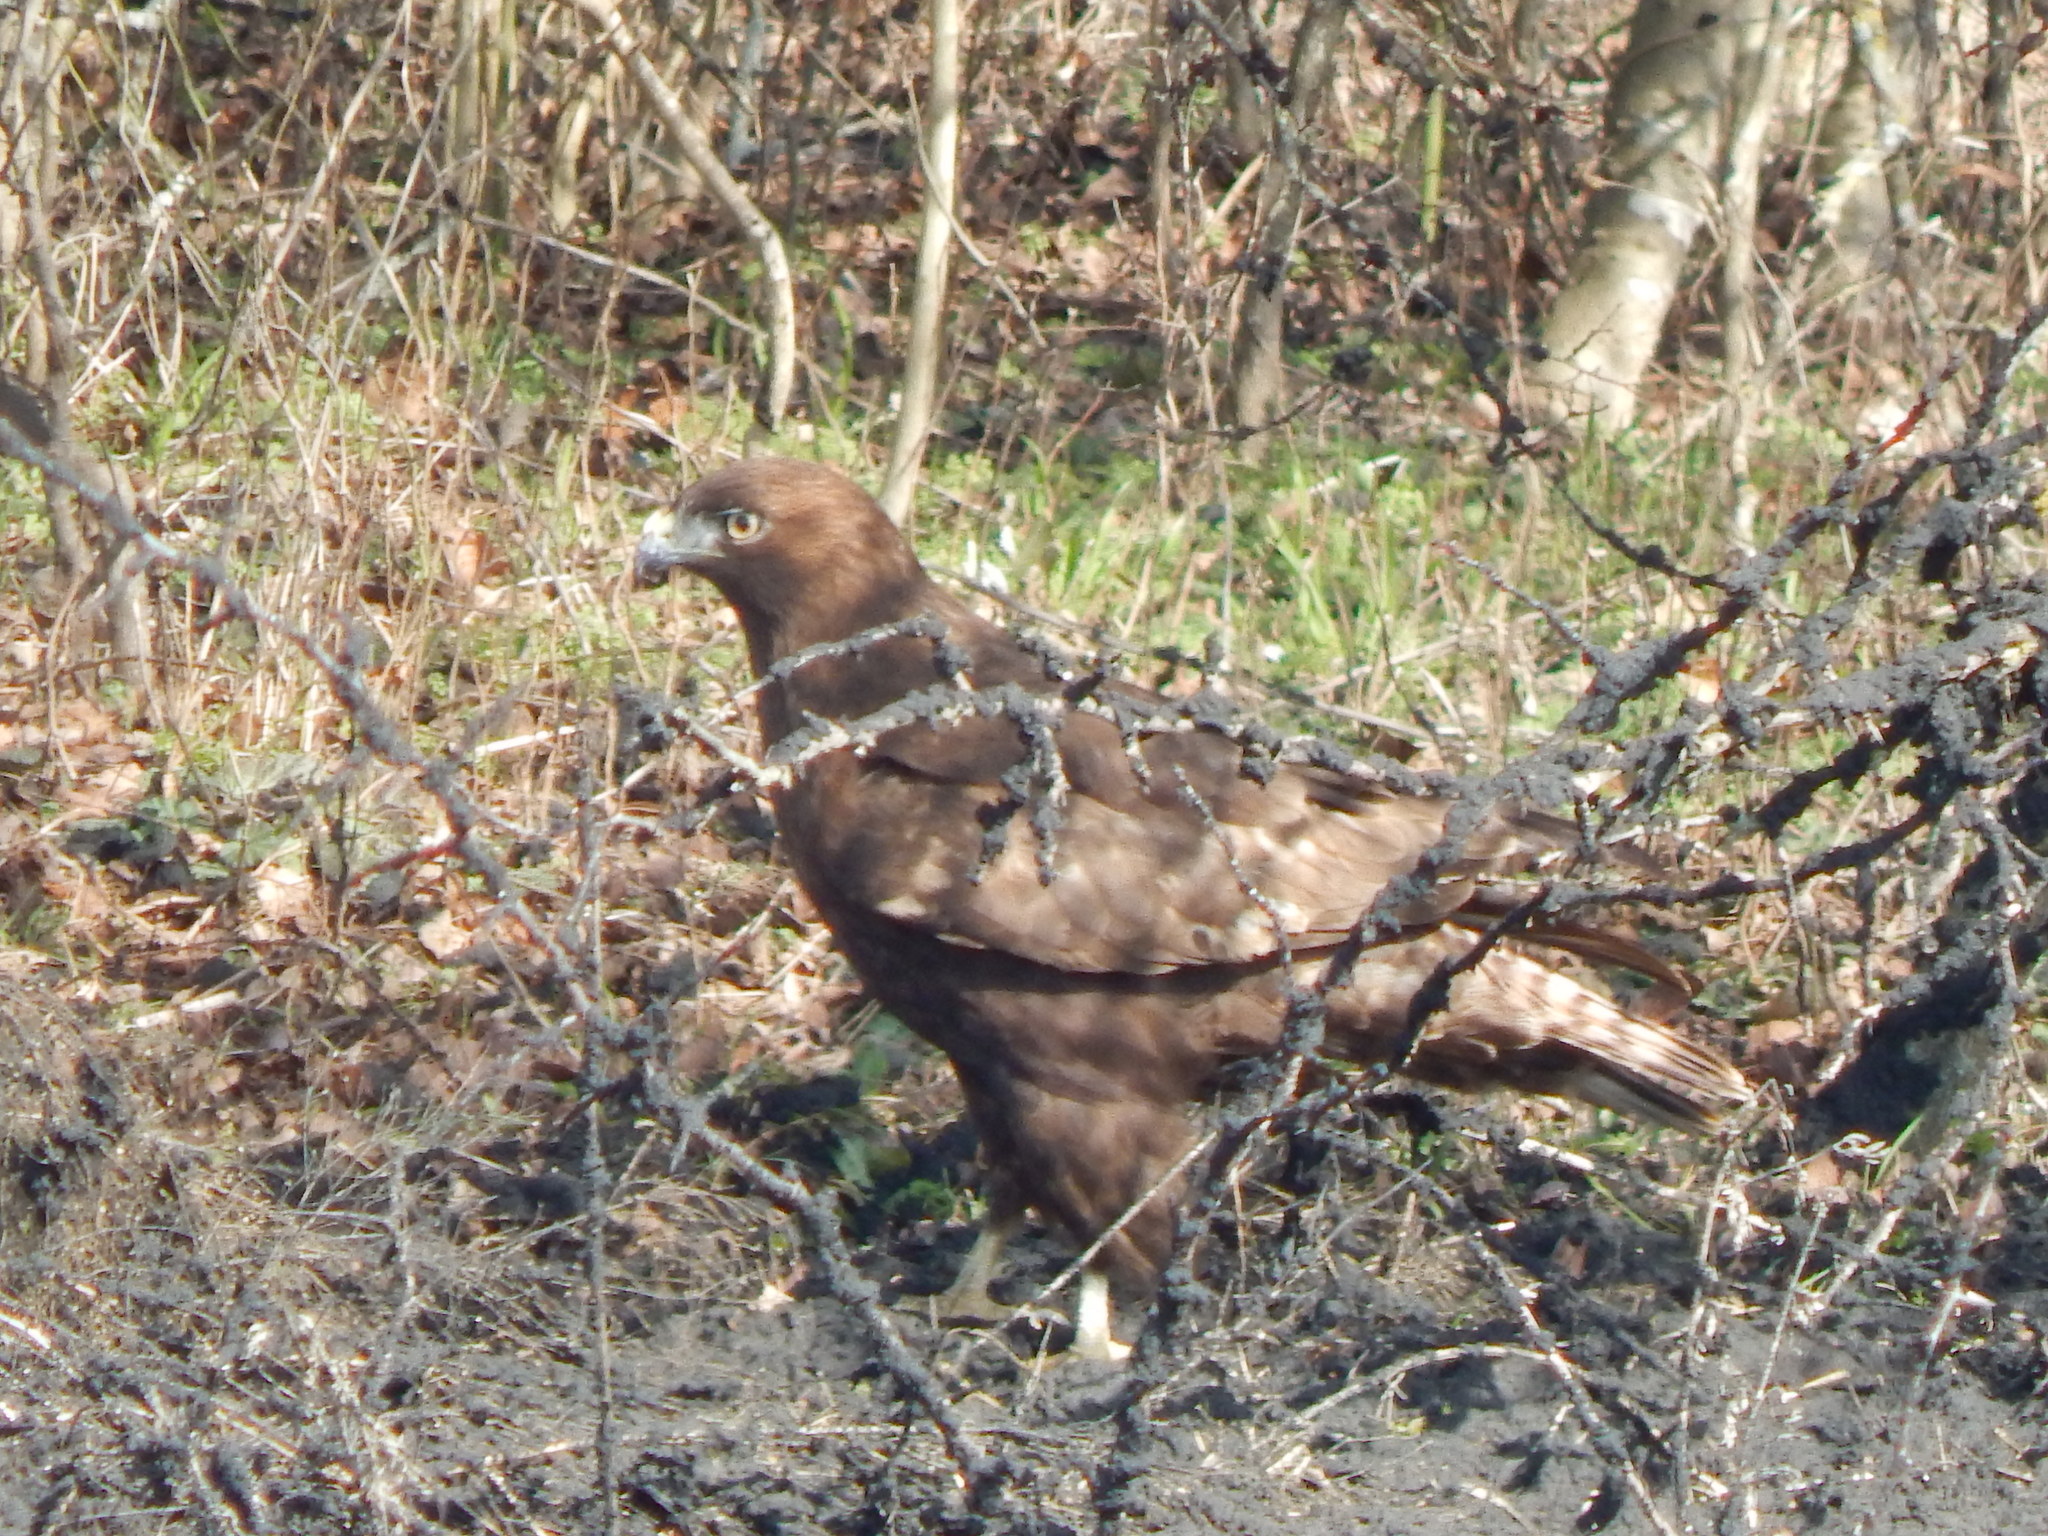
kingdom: Animalia
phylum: Chordata
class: Aves
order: Accipitriformes
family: Accipitridae
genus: Buteo
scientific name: Buteo jamaicensis
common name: Red-tailed hawk
